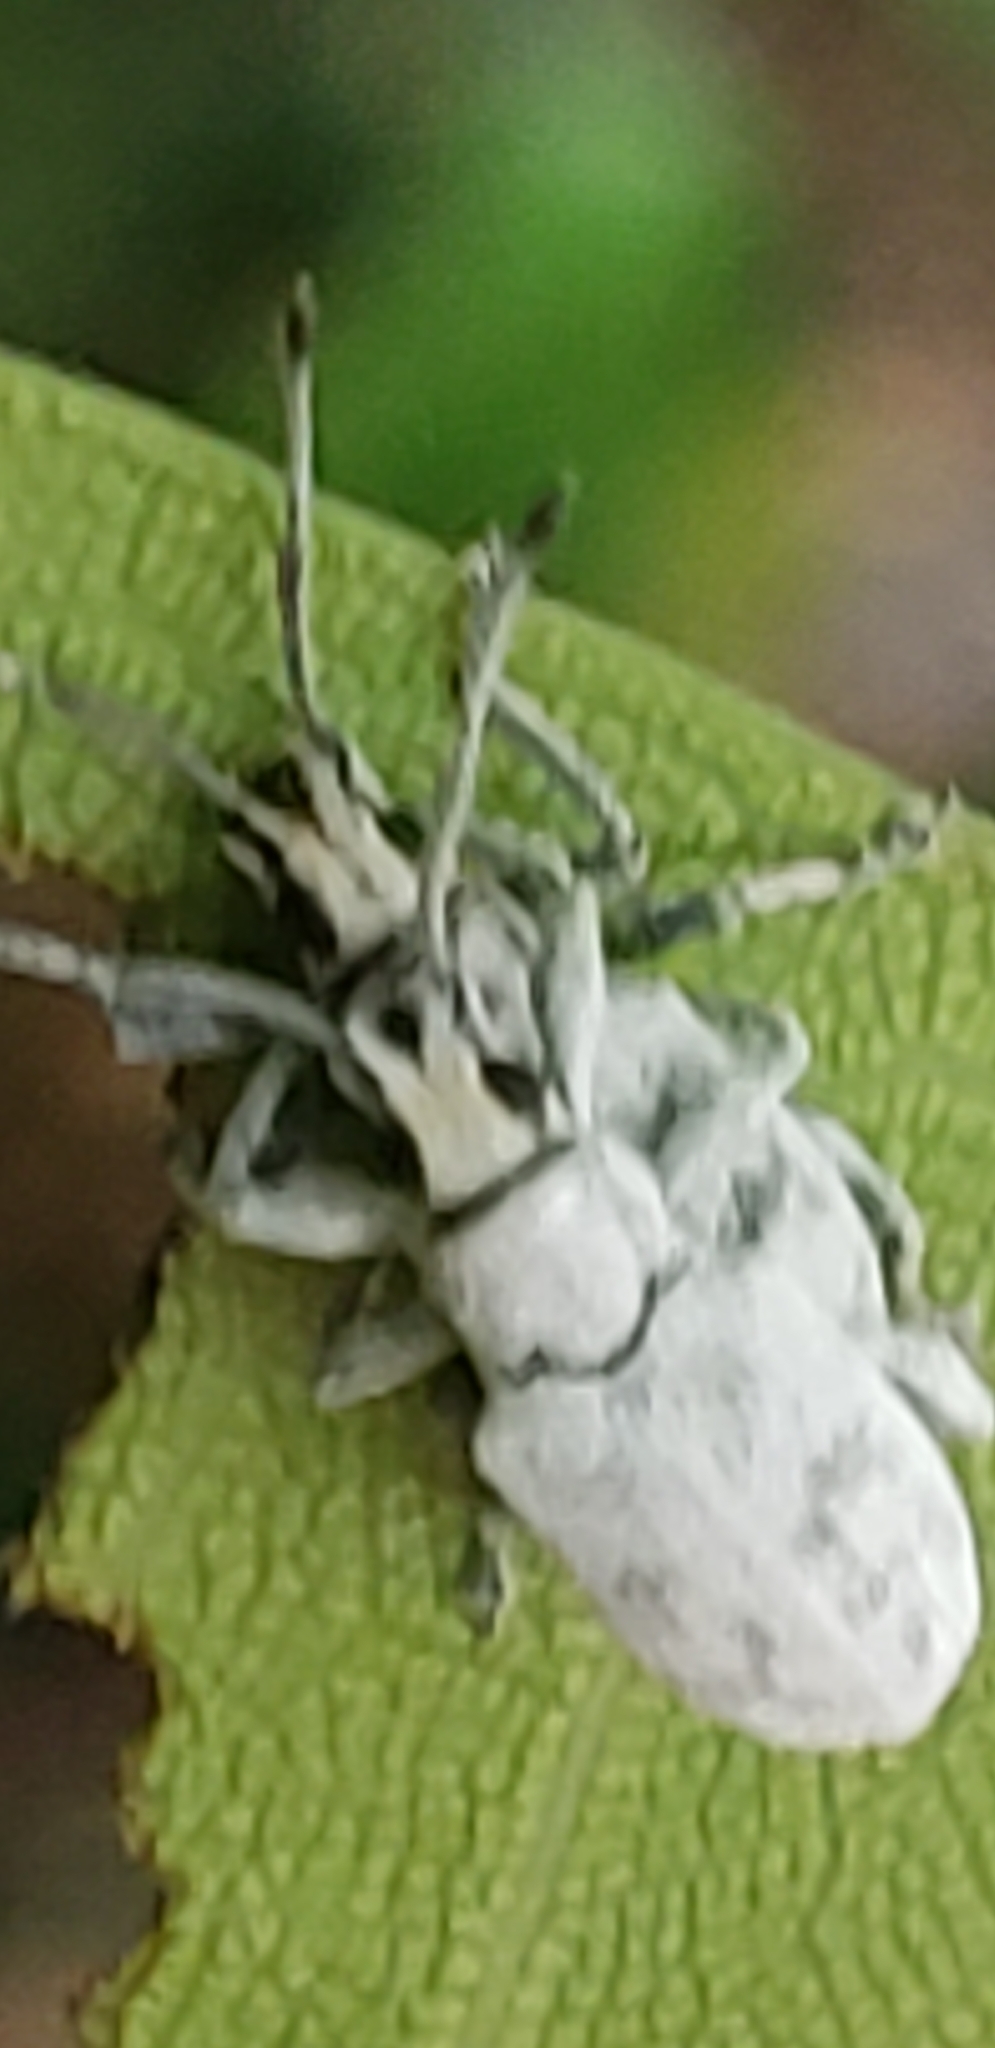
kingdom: Animalia
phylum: Arthropoda
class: Insecta
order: Coleoptera
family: Curculionidae
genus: Myllocerus
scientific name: Myllocerus undecimpustulatus
